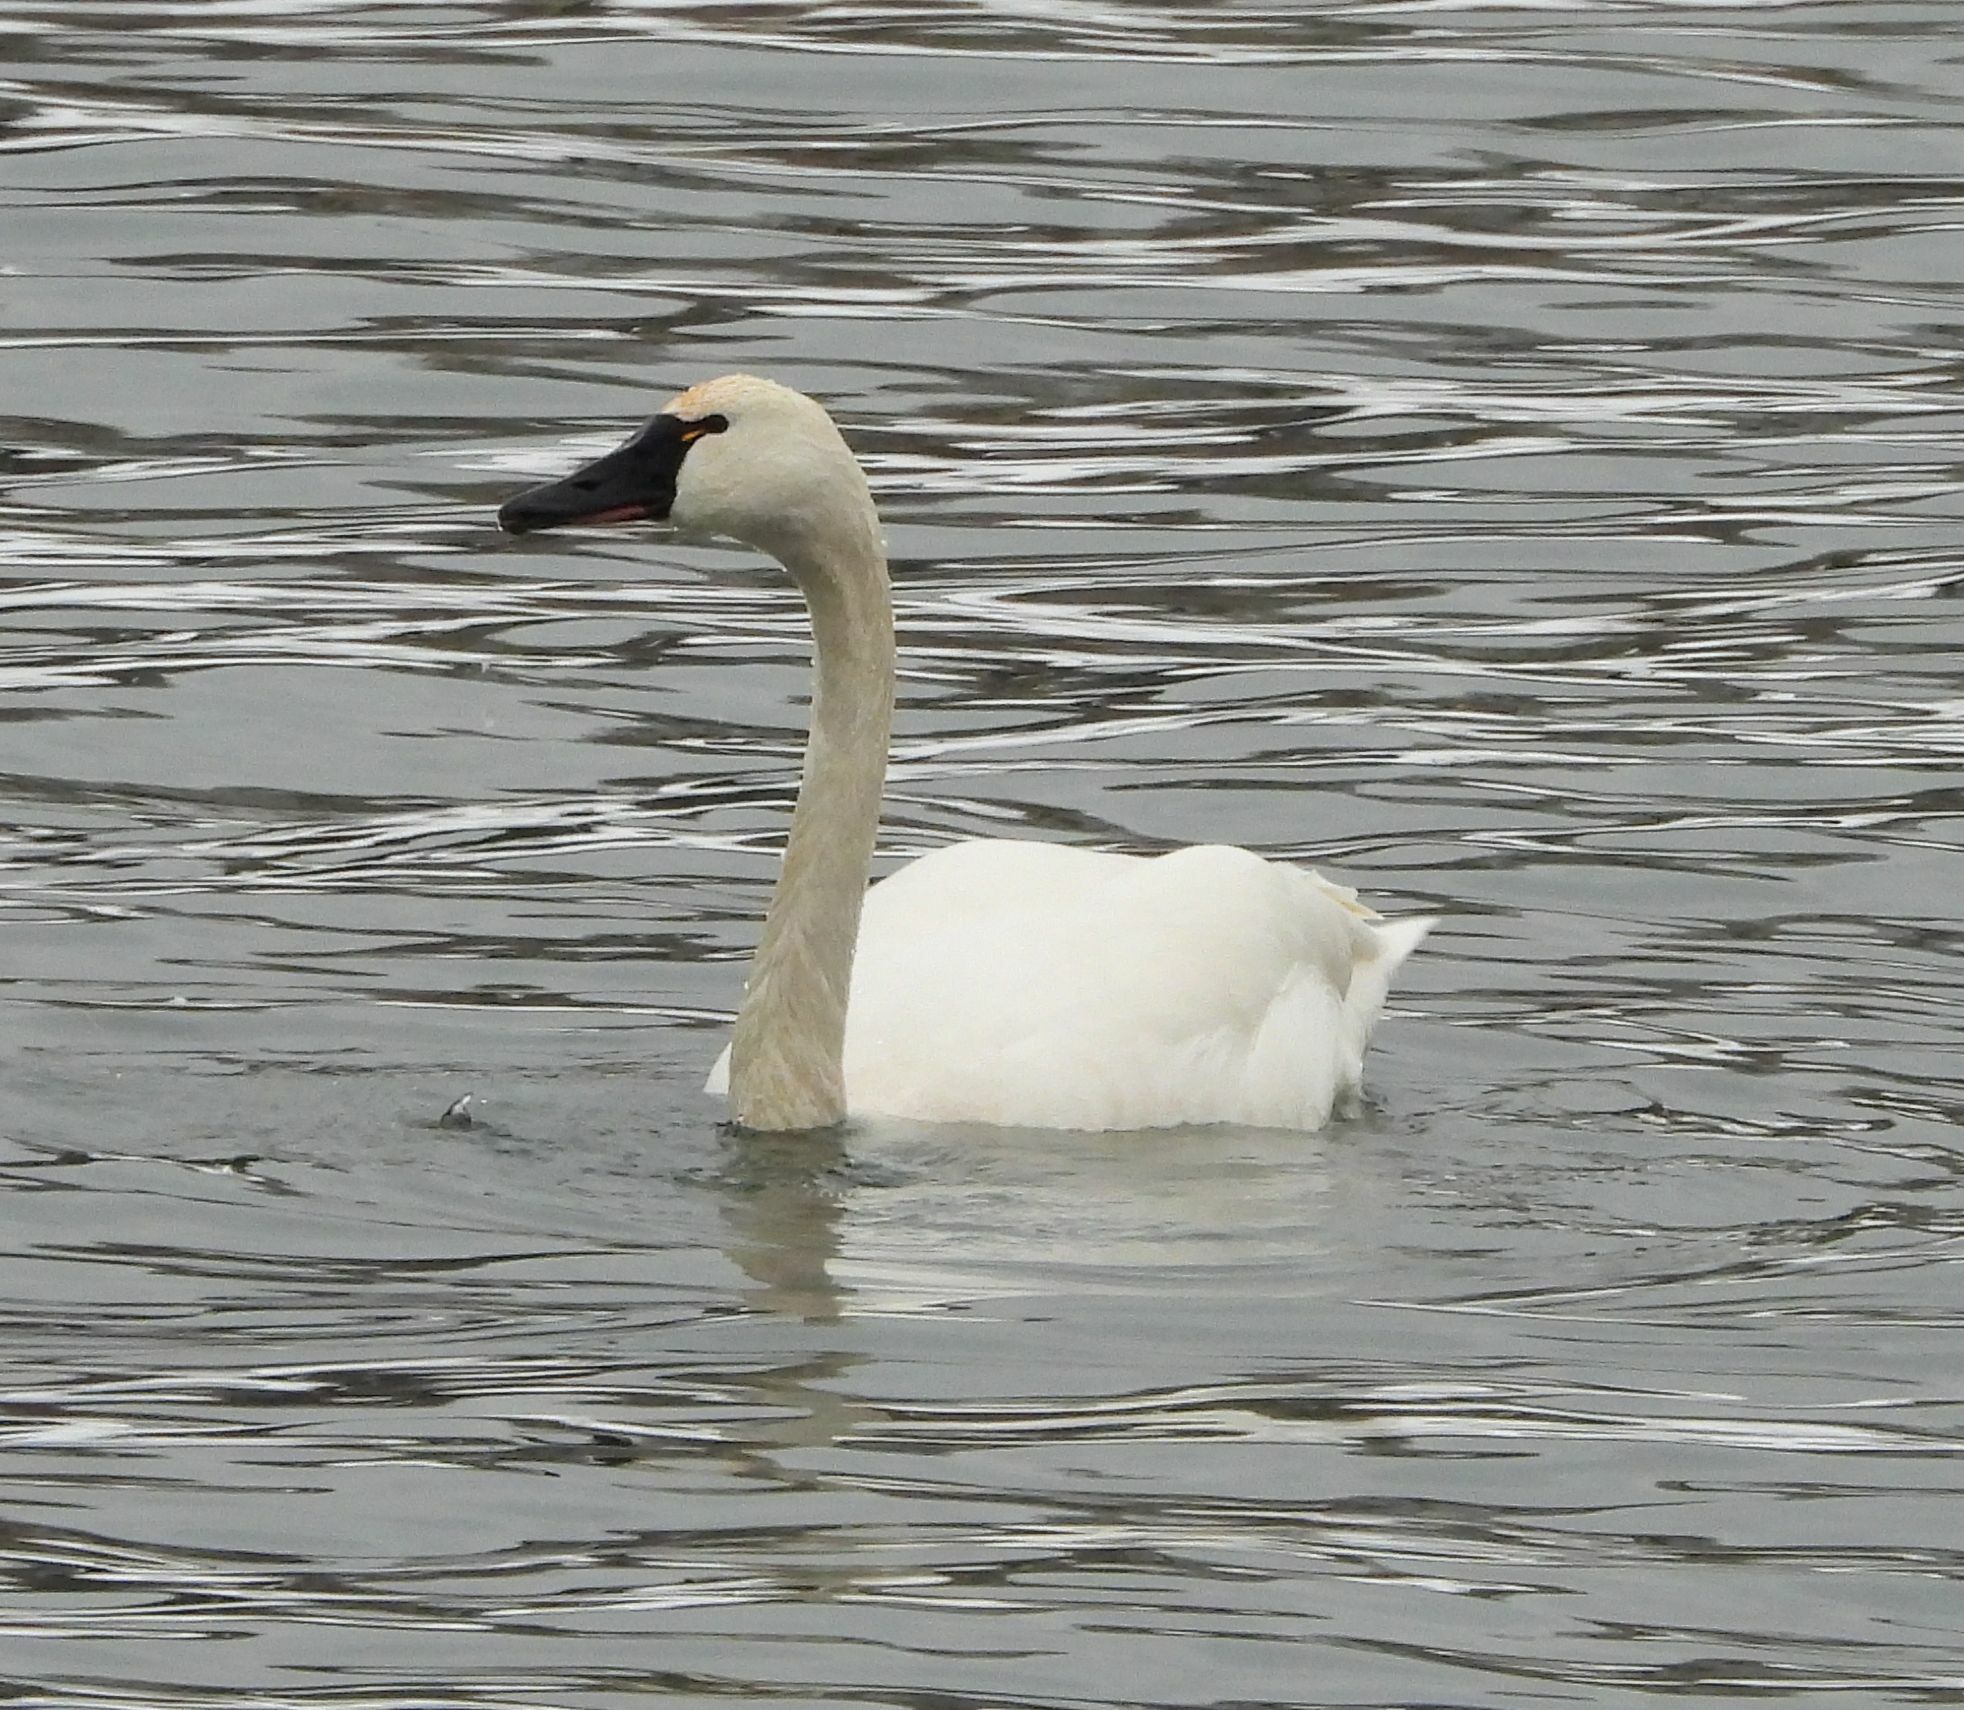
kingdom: Animalia
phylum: Chordata
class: Aves
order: Anseriformes
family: Anatidae
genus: Cygnus
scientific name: Cygnus columbianus
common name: Tundra swan
